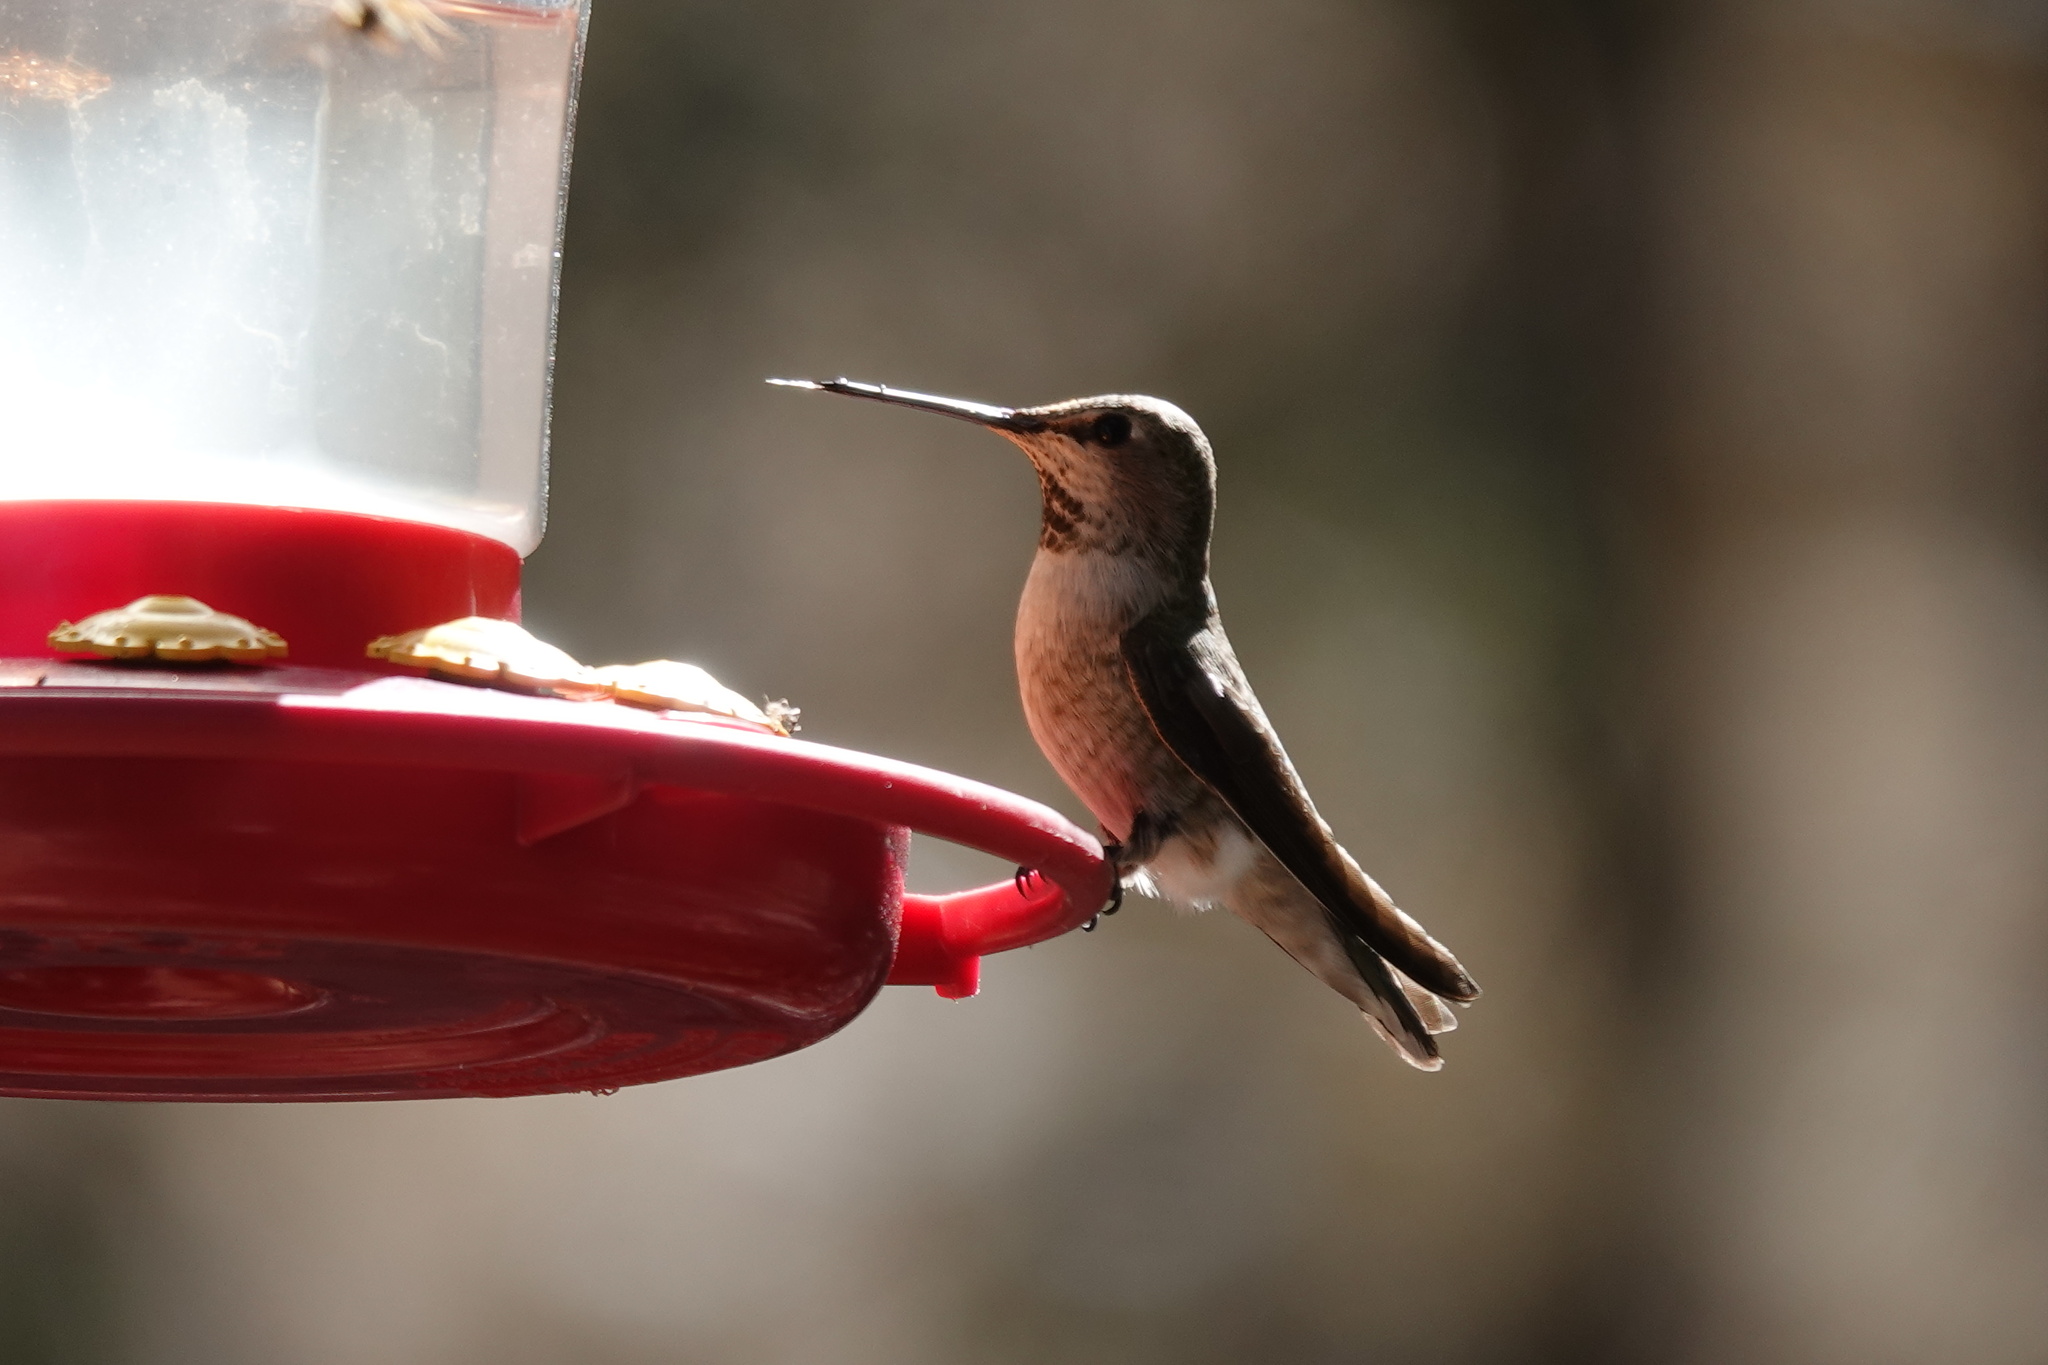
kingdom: Animalia
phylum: Chordata
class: Aves
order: Apodiformes
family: Trochilidae
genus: Calypte
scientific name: Calypte anna
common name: Anna's hummingbird
